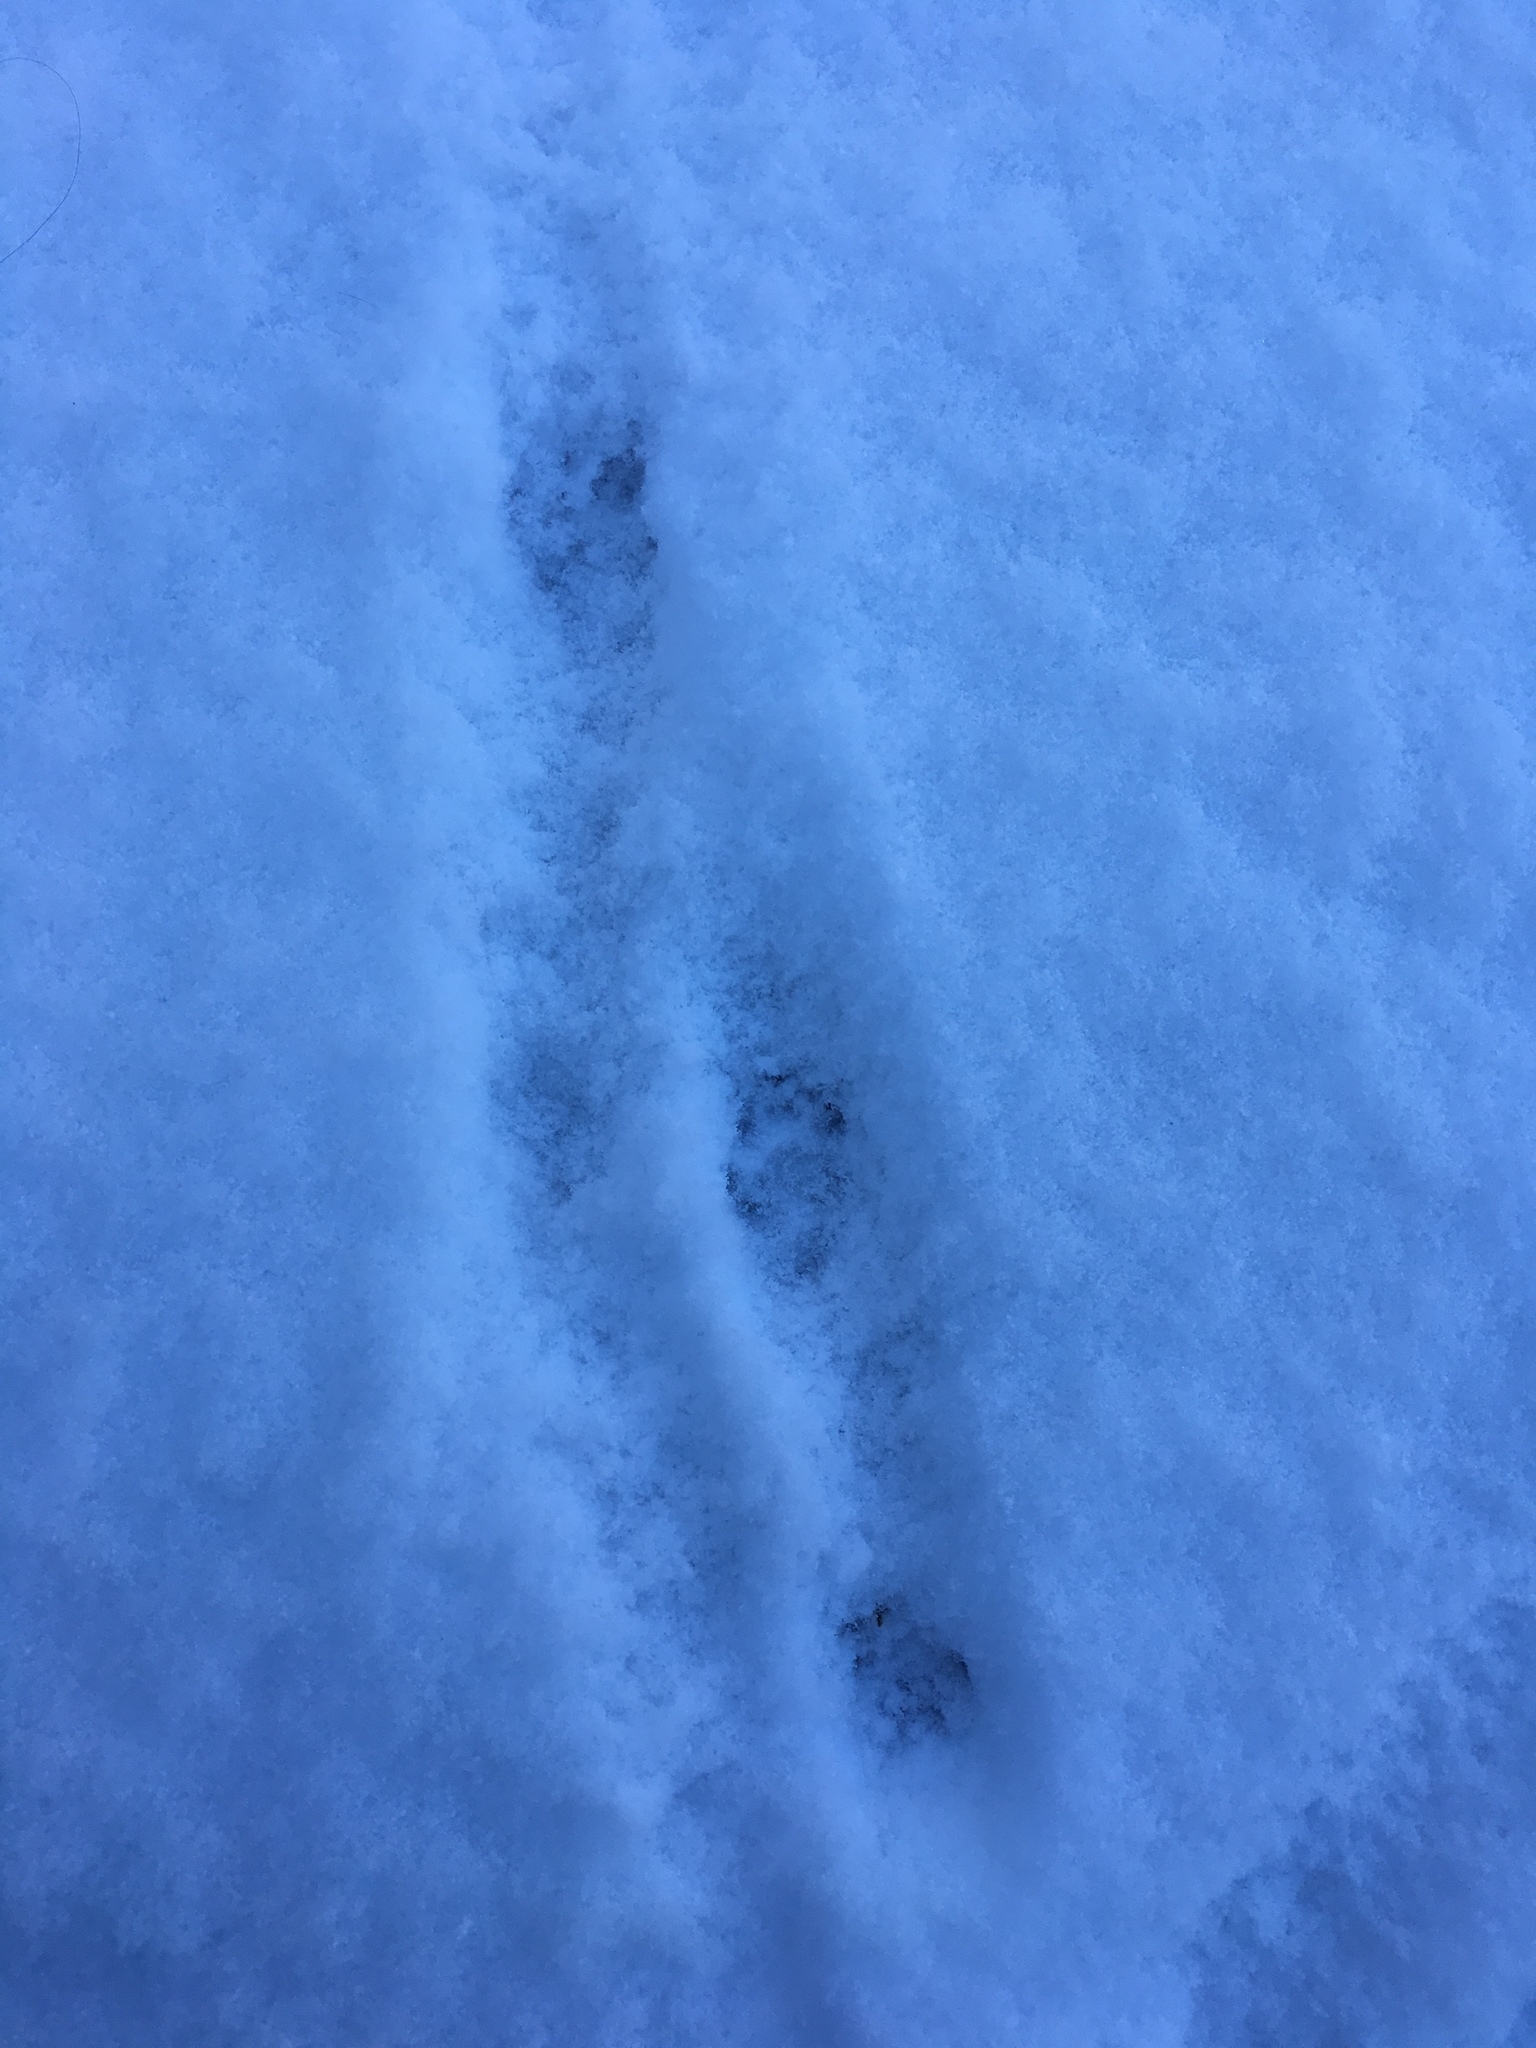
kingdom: Animalia
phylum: Chordata
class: Mammalia
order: Carnivora
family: Mephitidae
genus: Mephitis
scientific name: Mephitis mephitis
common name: Striped skunk
